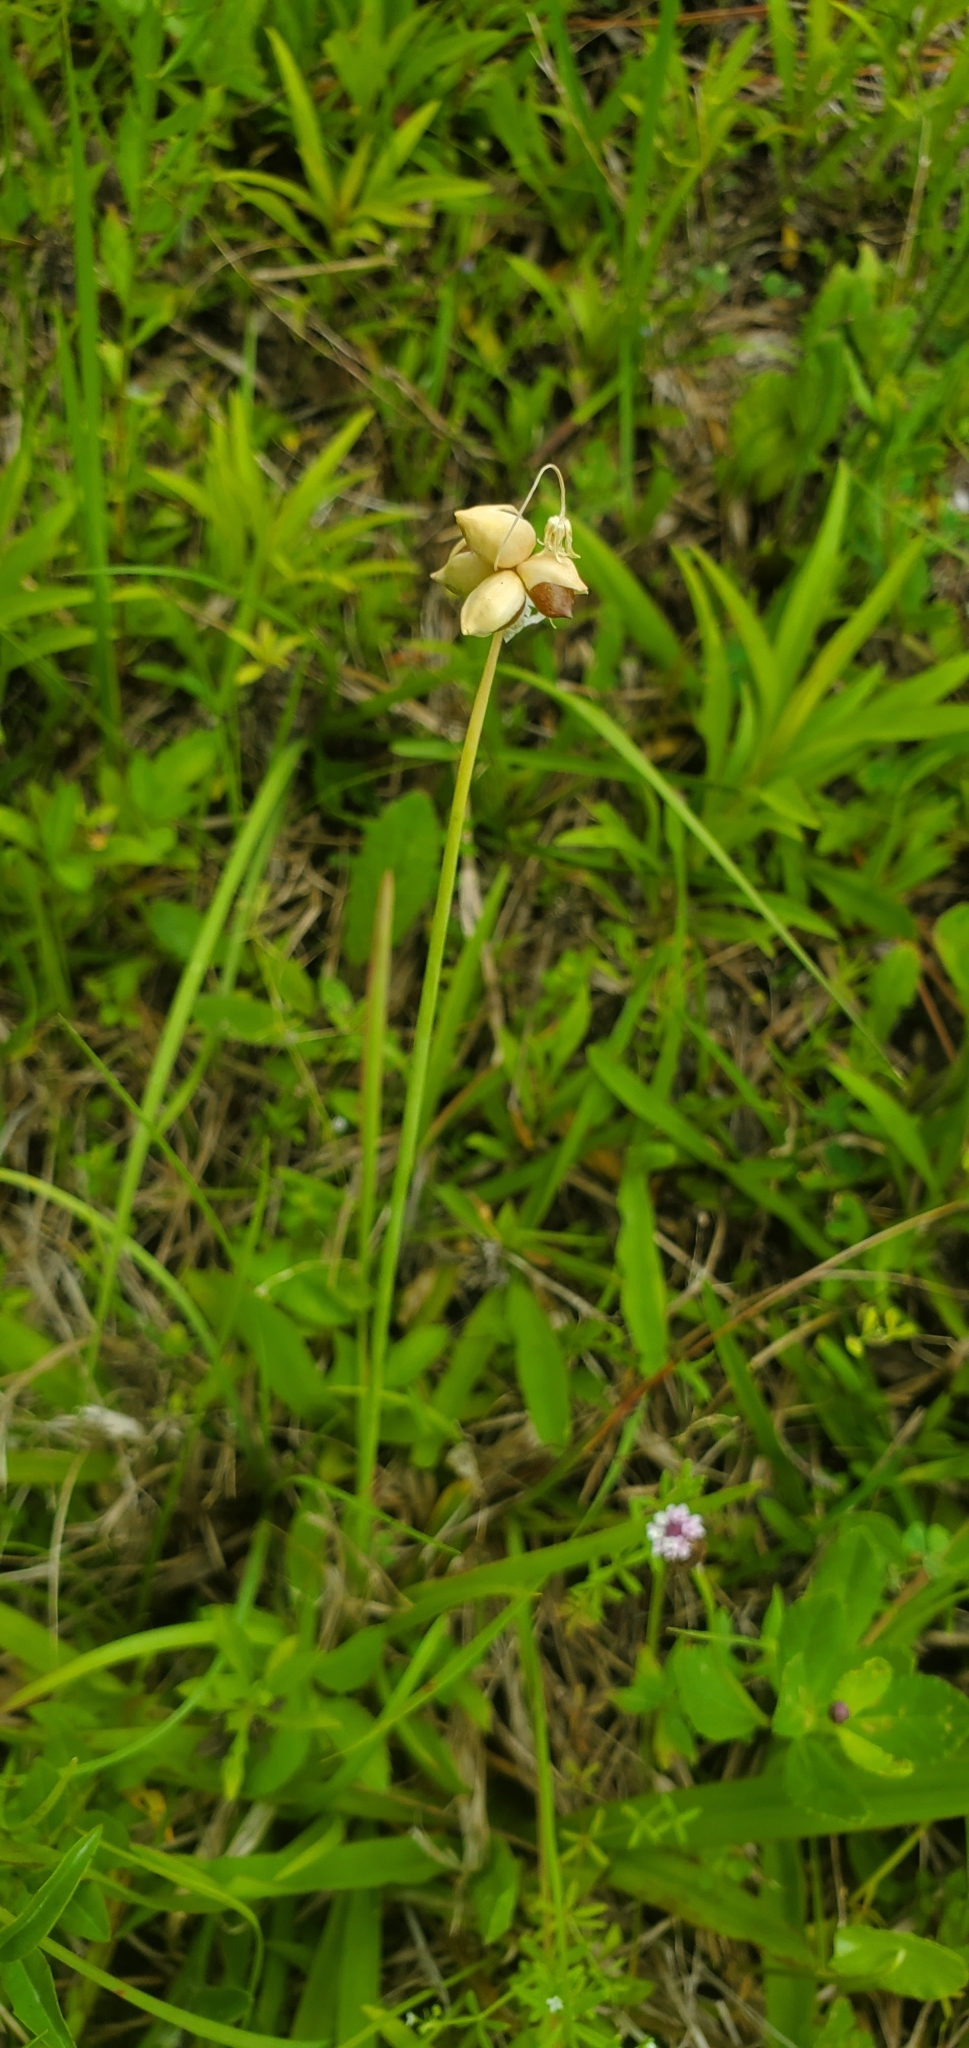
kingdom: Plantae
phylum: Tracheophyta
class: Liliopsida
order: Asparagales
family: Amaryllidaceae
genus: Allium
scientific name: Allium canadense
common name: Meadow garlic
